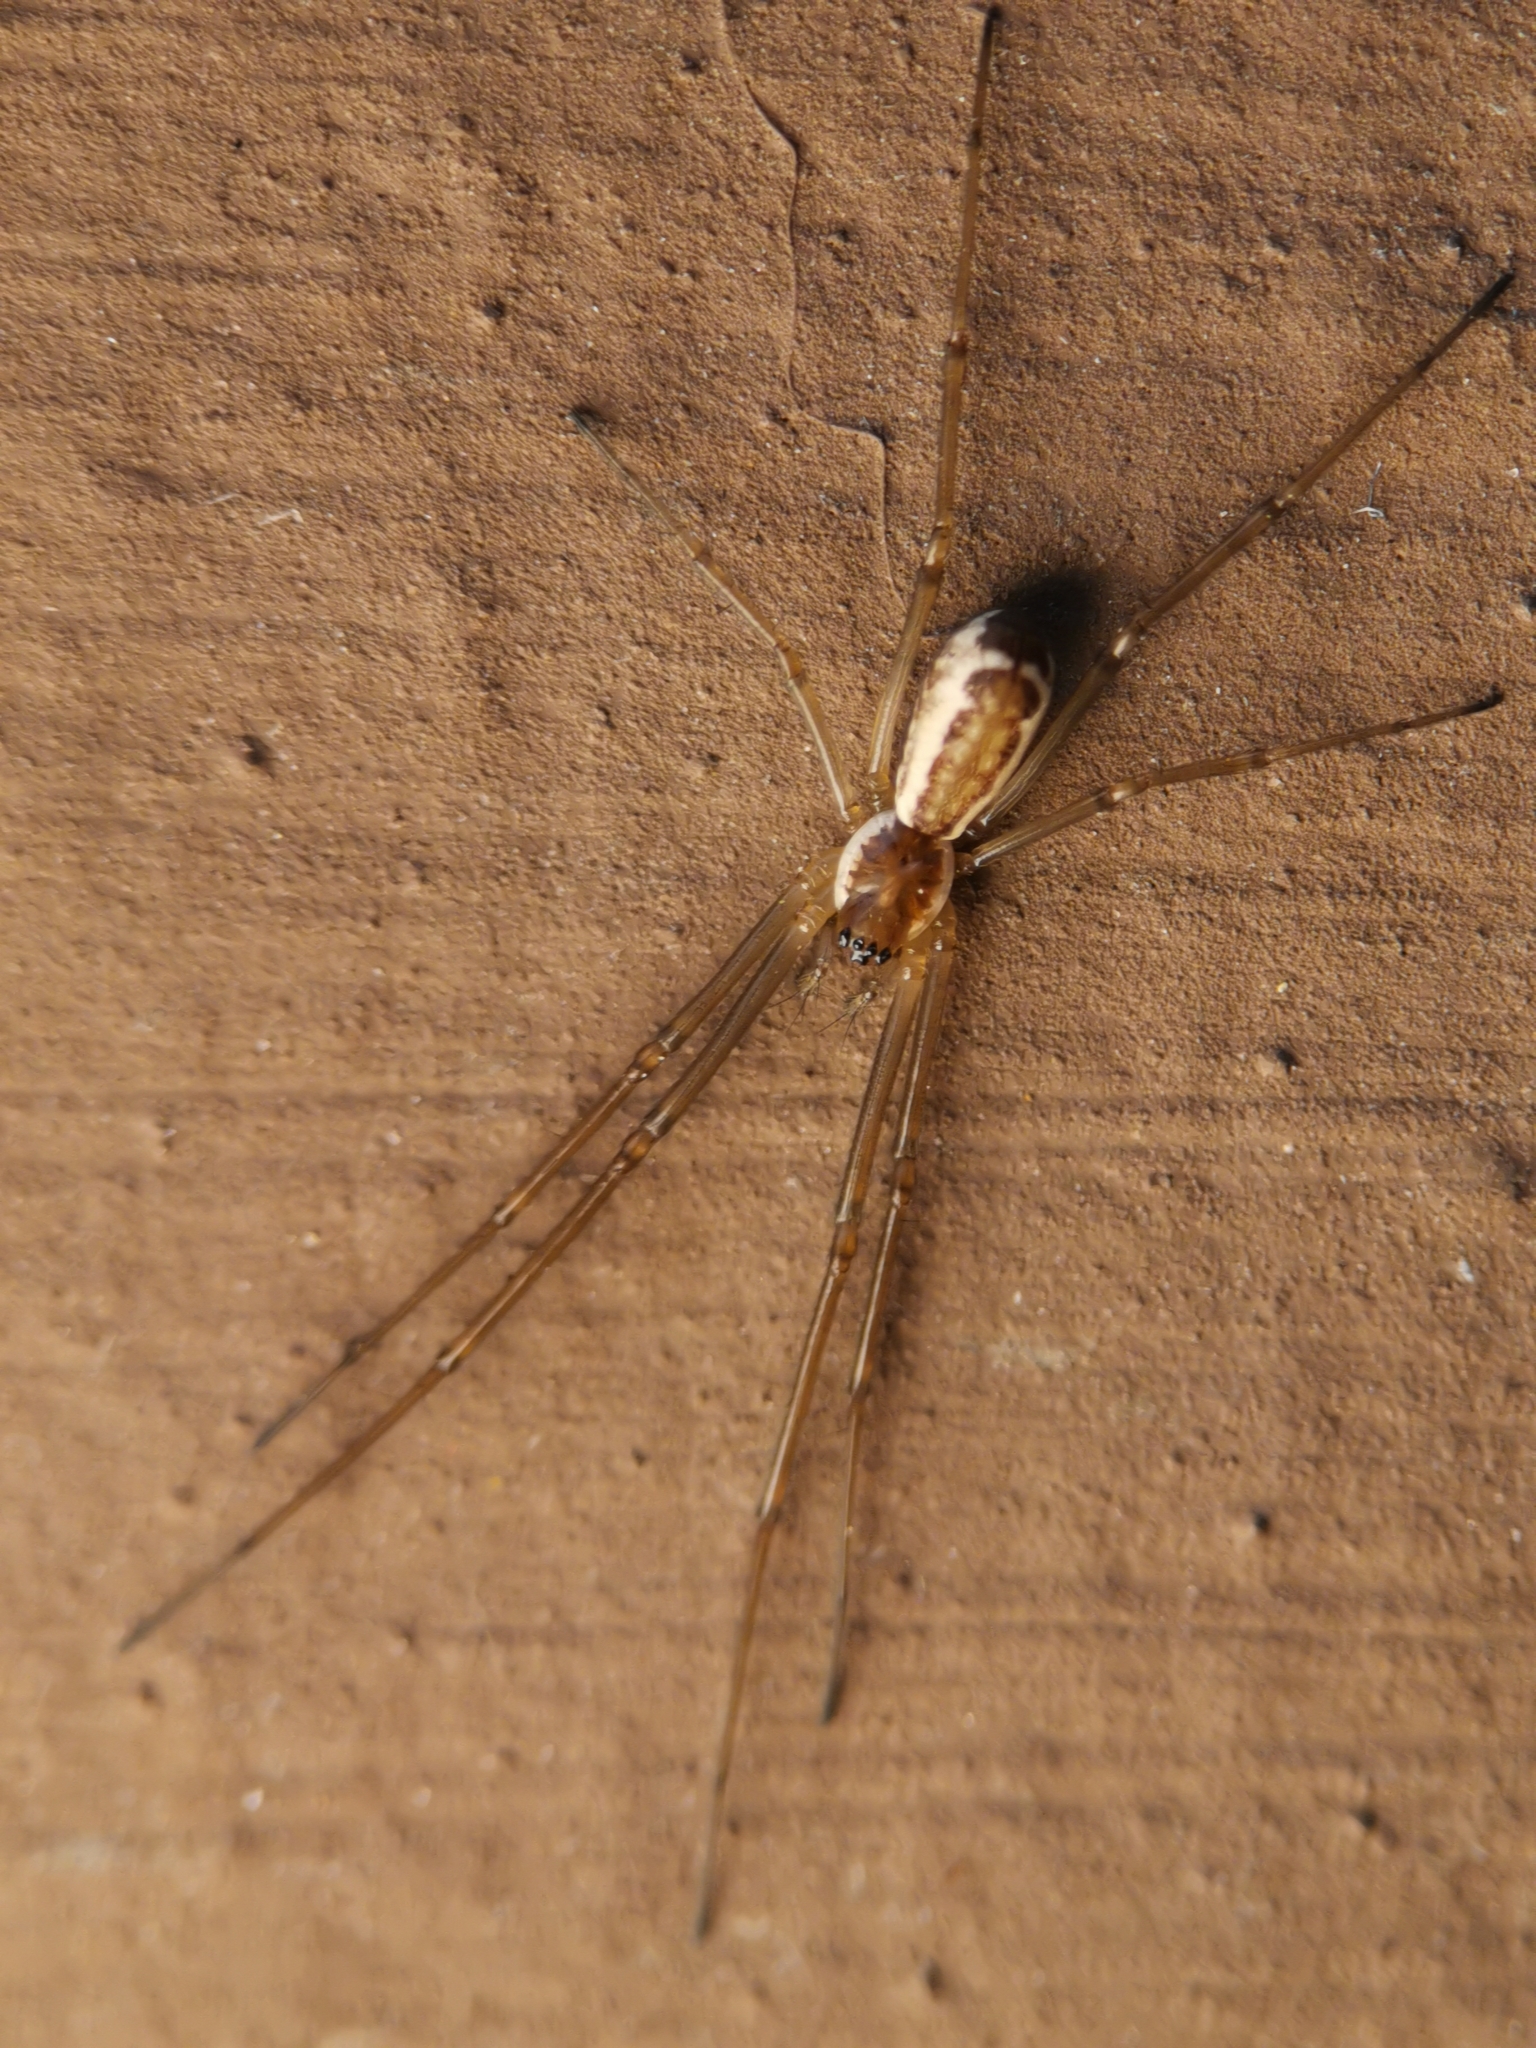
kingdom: Animalia
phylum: Arthropoda
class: Arachnida
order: Araneae
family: Linyphiidae
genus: Neriene
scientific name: Neriene radiata
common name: Filmy dome spider
